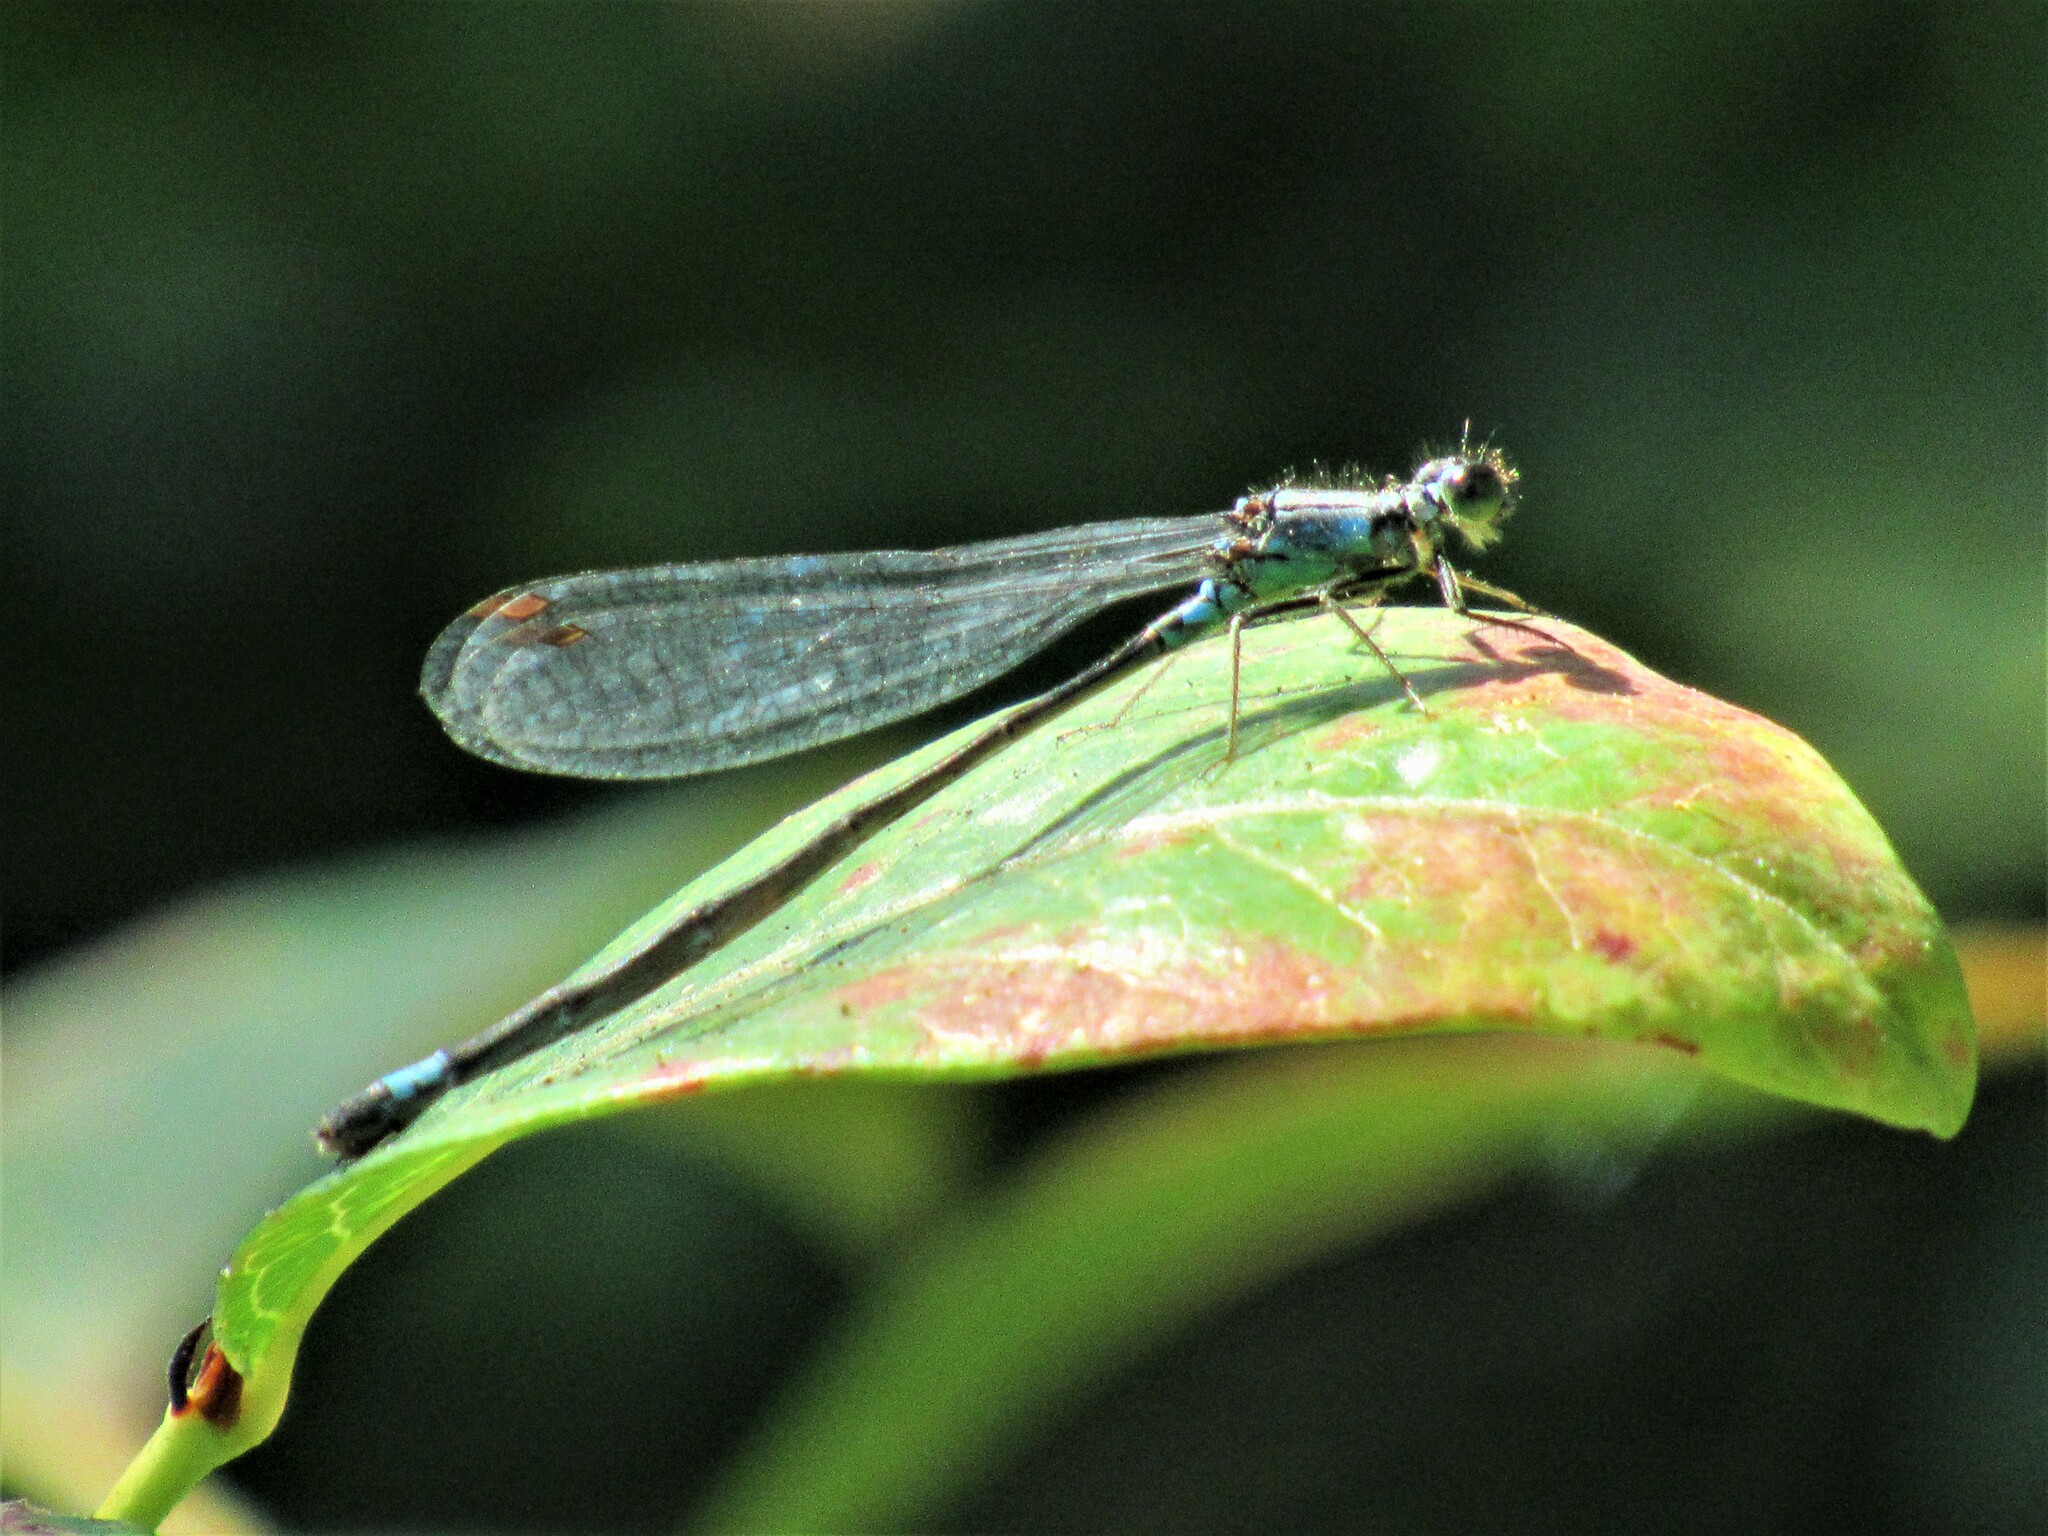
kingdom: Animalia
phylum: Arthropoda
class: Insecta
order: Odonata
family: Coenagrionidae
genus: Ischnura
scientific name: Ischnura cervula
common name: Pacific forktail
